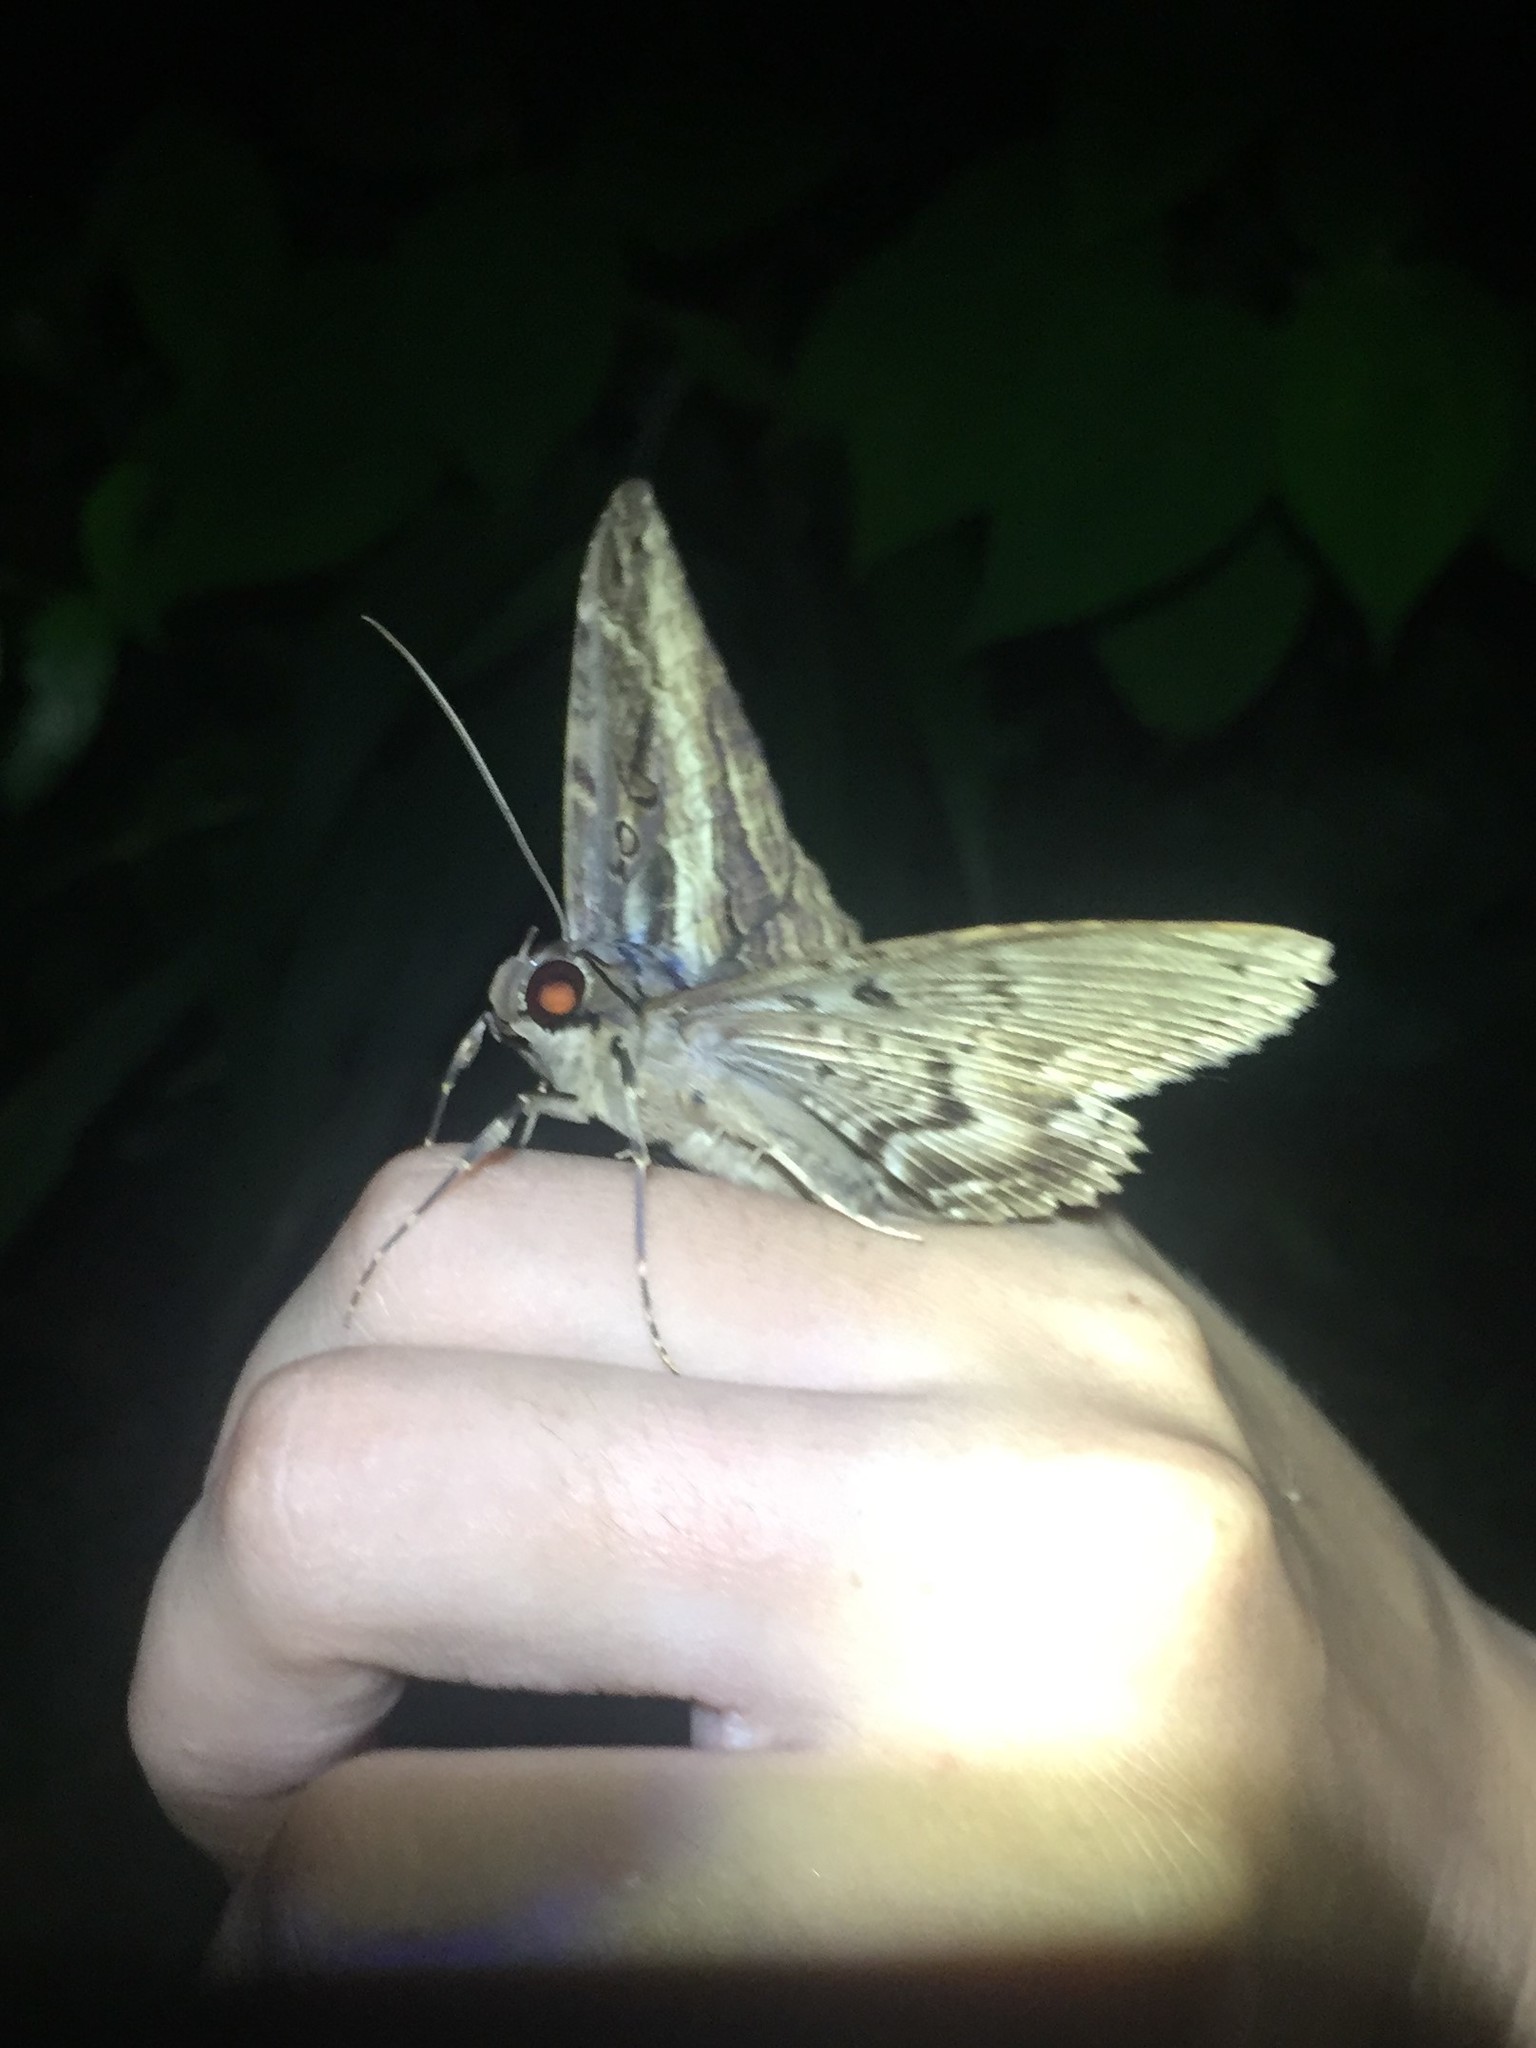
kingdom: Animalia
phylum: Arthropoda
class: Insecta
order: Lepidoptera
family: Erebidae
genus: Feigeria
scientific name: Feigeria buteo
